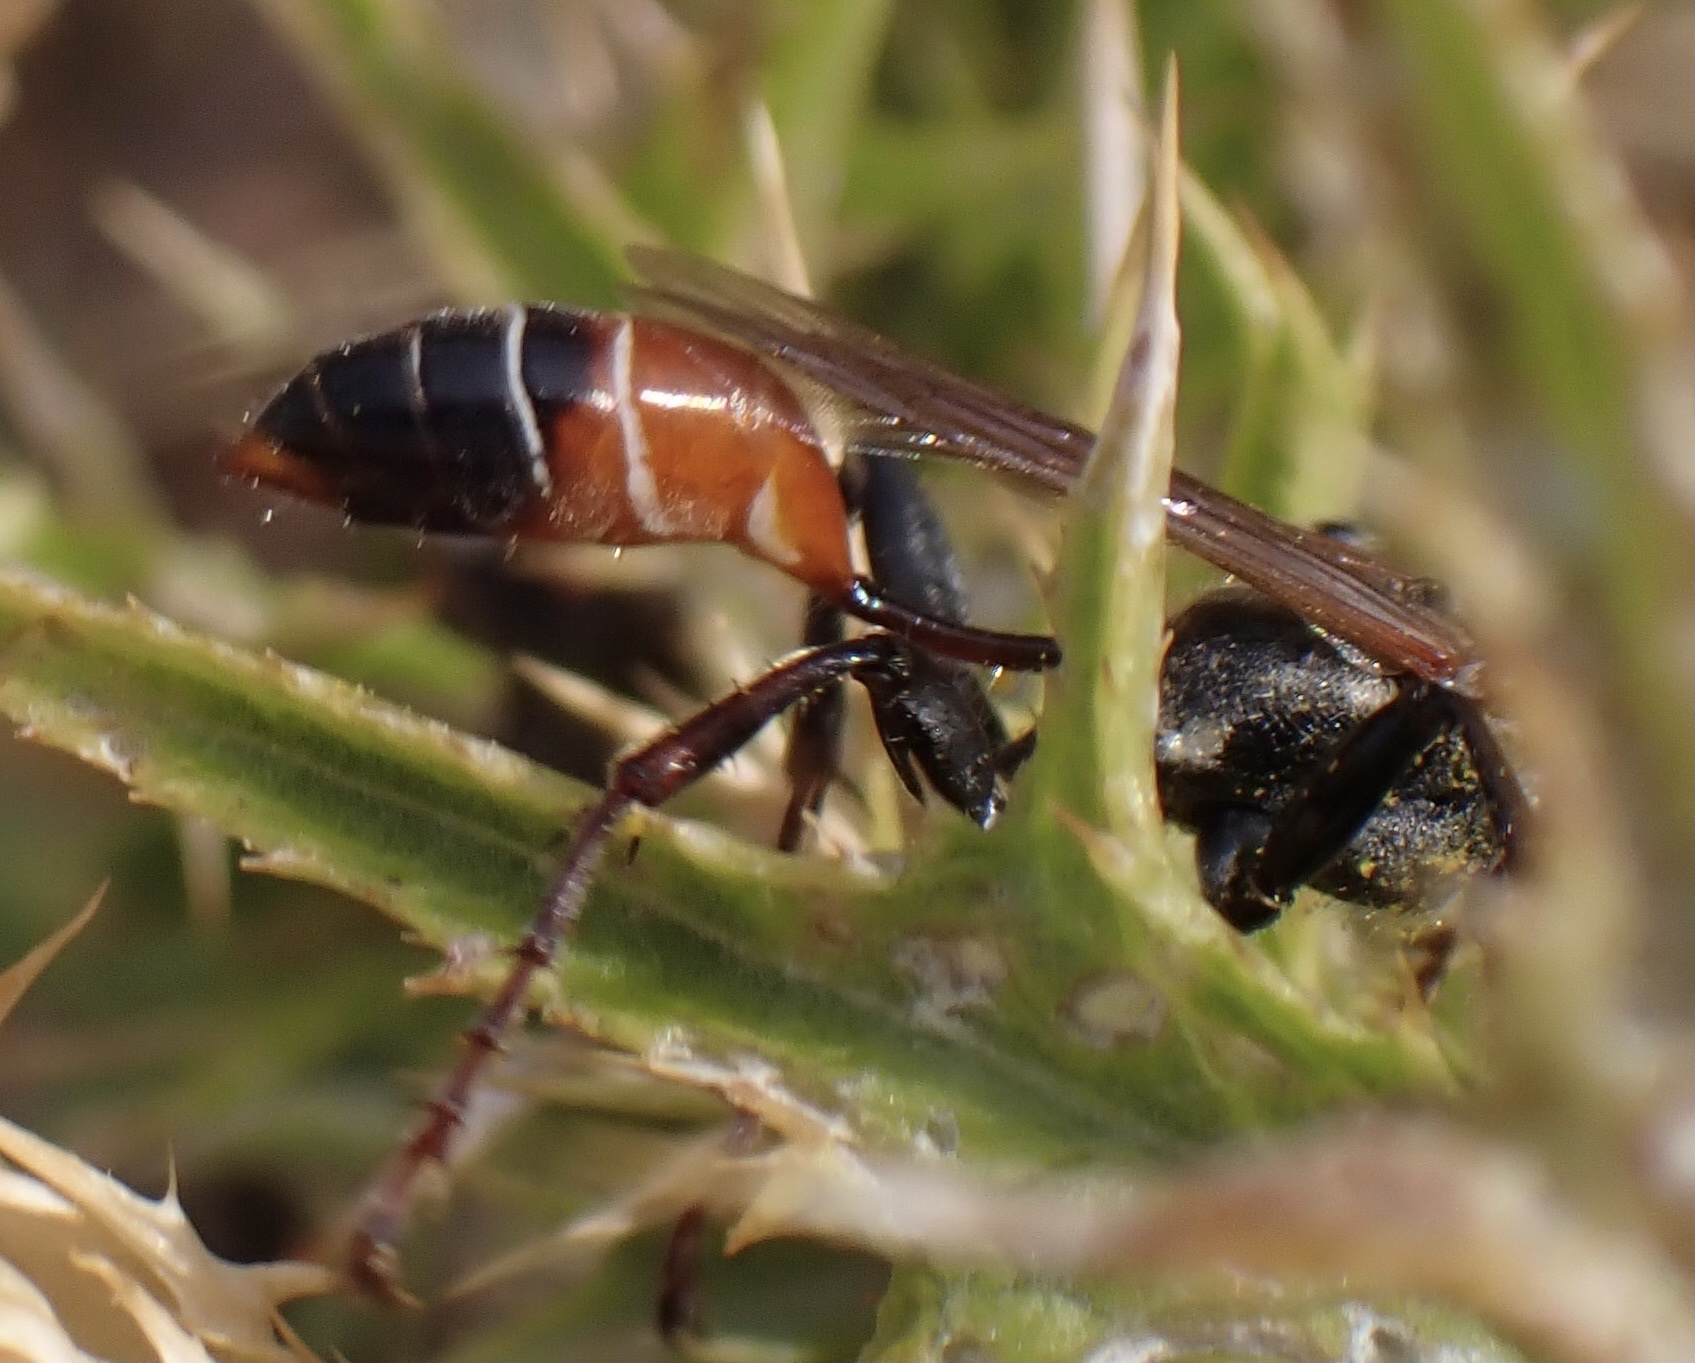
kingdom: Animalia
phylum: Arthropoda
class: Insecta
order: Hymenoptera
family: Sphecidae
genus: Prionyx
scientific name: Prionyx kirbii
